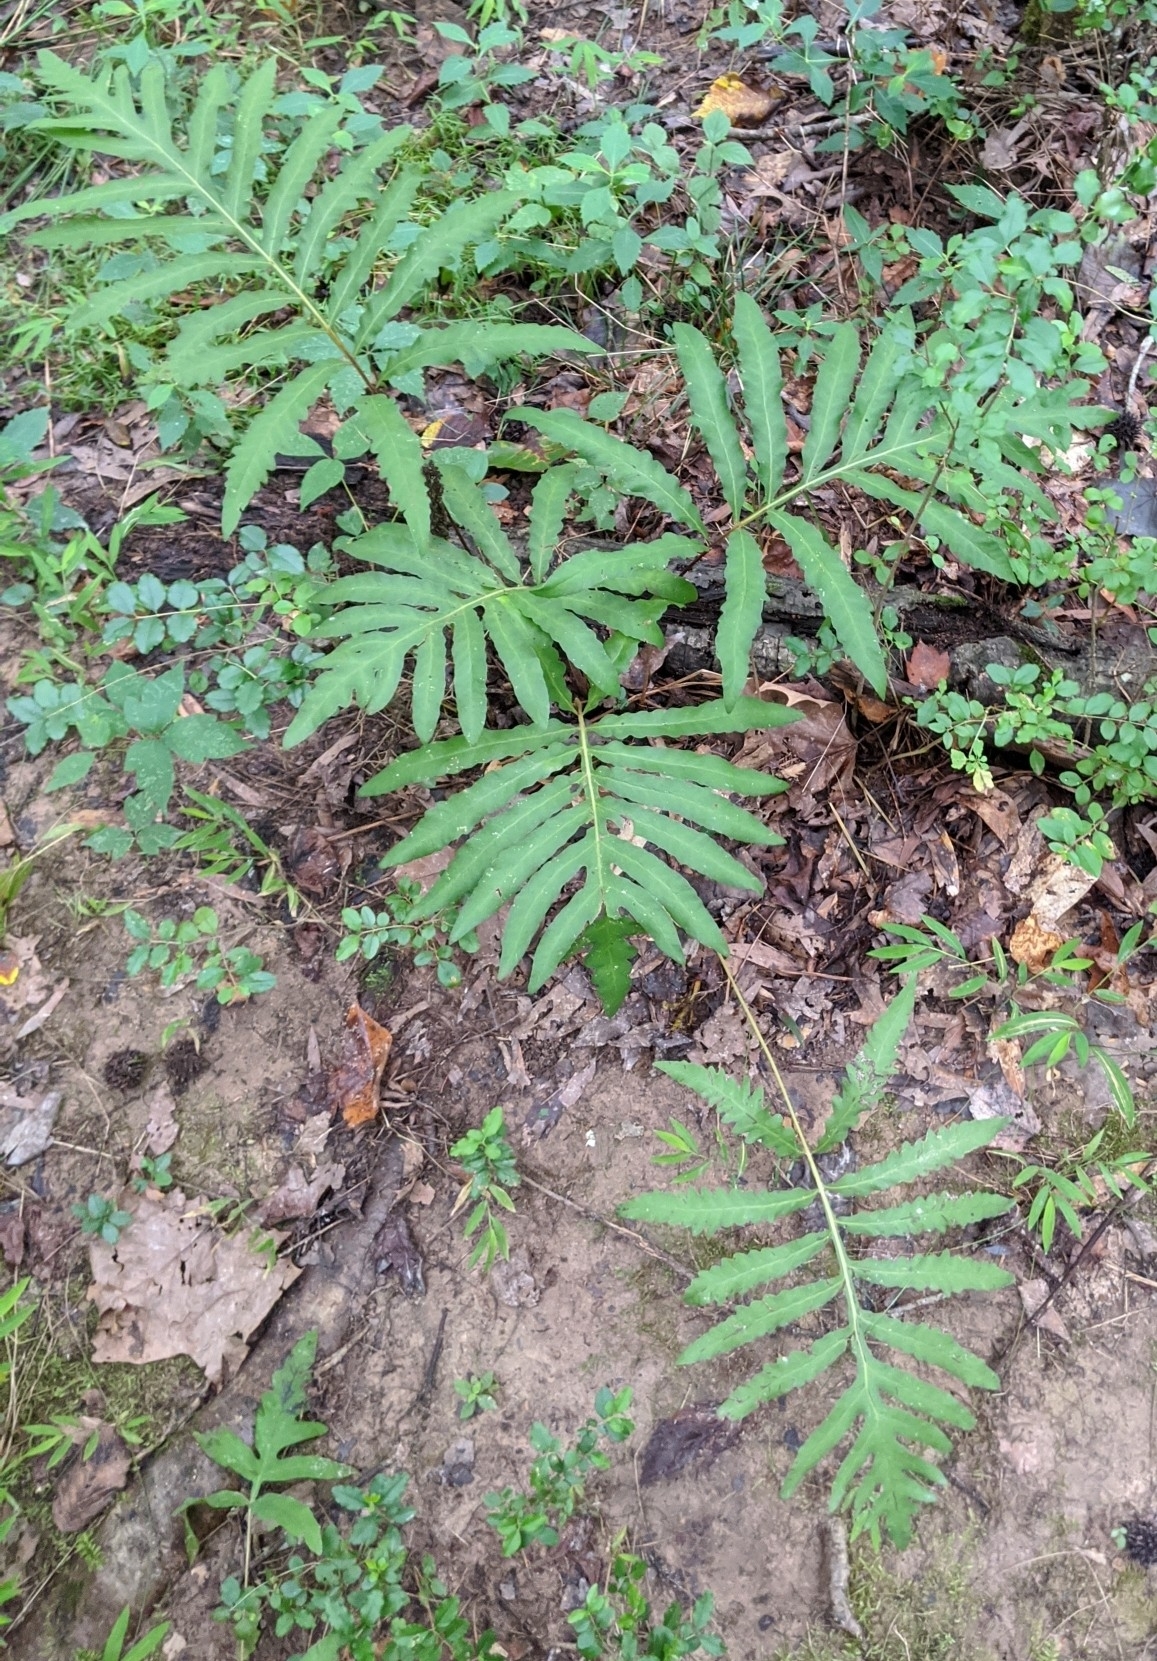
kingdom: Plantae
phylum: Tracheophyta
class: Polypodiopsida
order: Polypodiales
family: Onocleaceae
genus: Onoclea
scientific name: Onoclea sensibilis
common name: Sensitive fern
